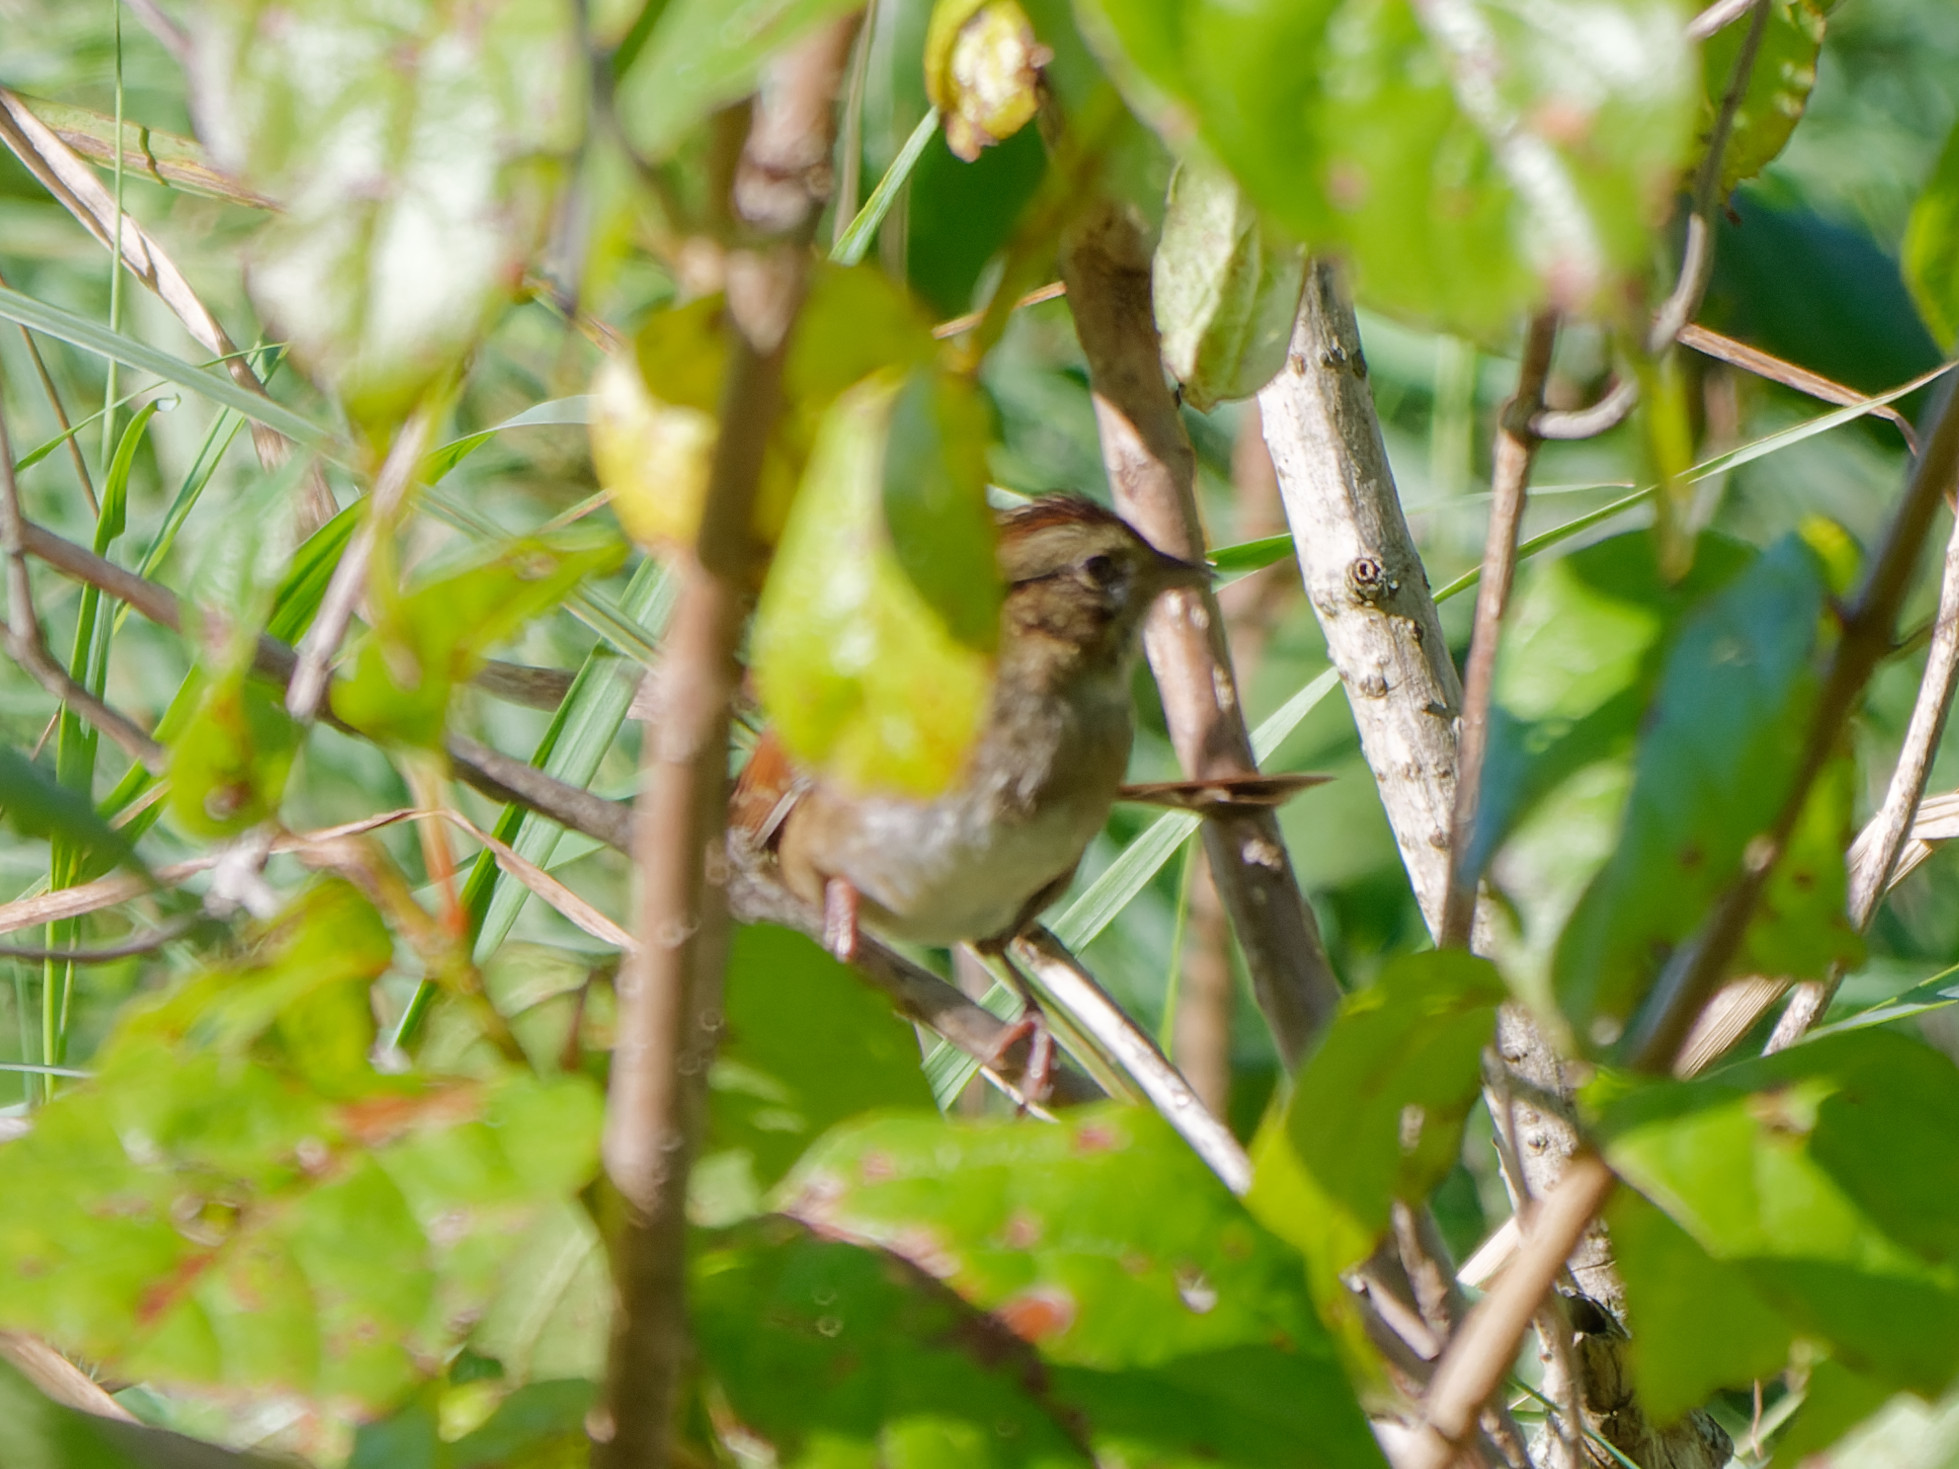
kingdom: Animalia
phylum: Chordata
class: Aves
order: Passeriformes
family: Passerellidae
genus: Melospiza
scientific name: Melospiza georgiana
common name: Swamp sparrow
